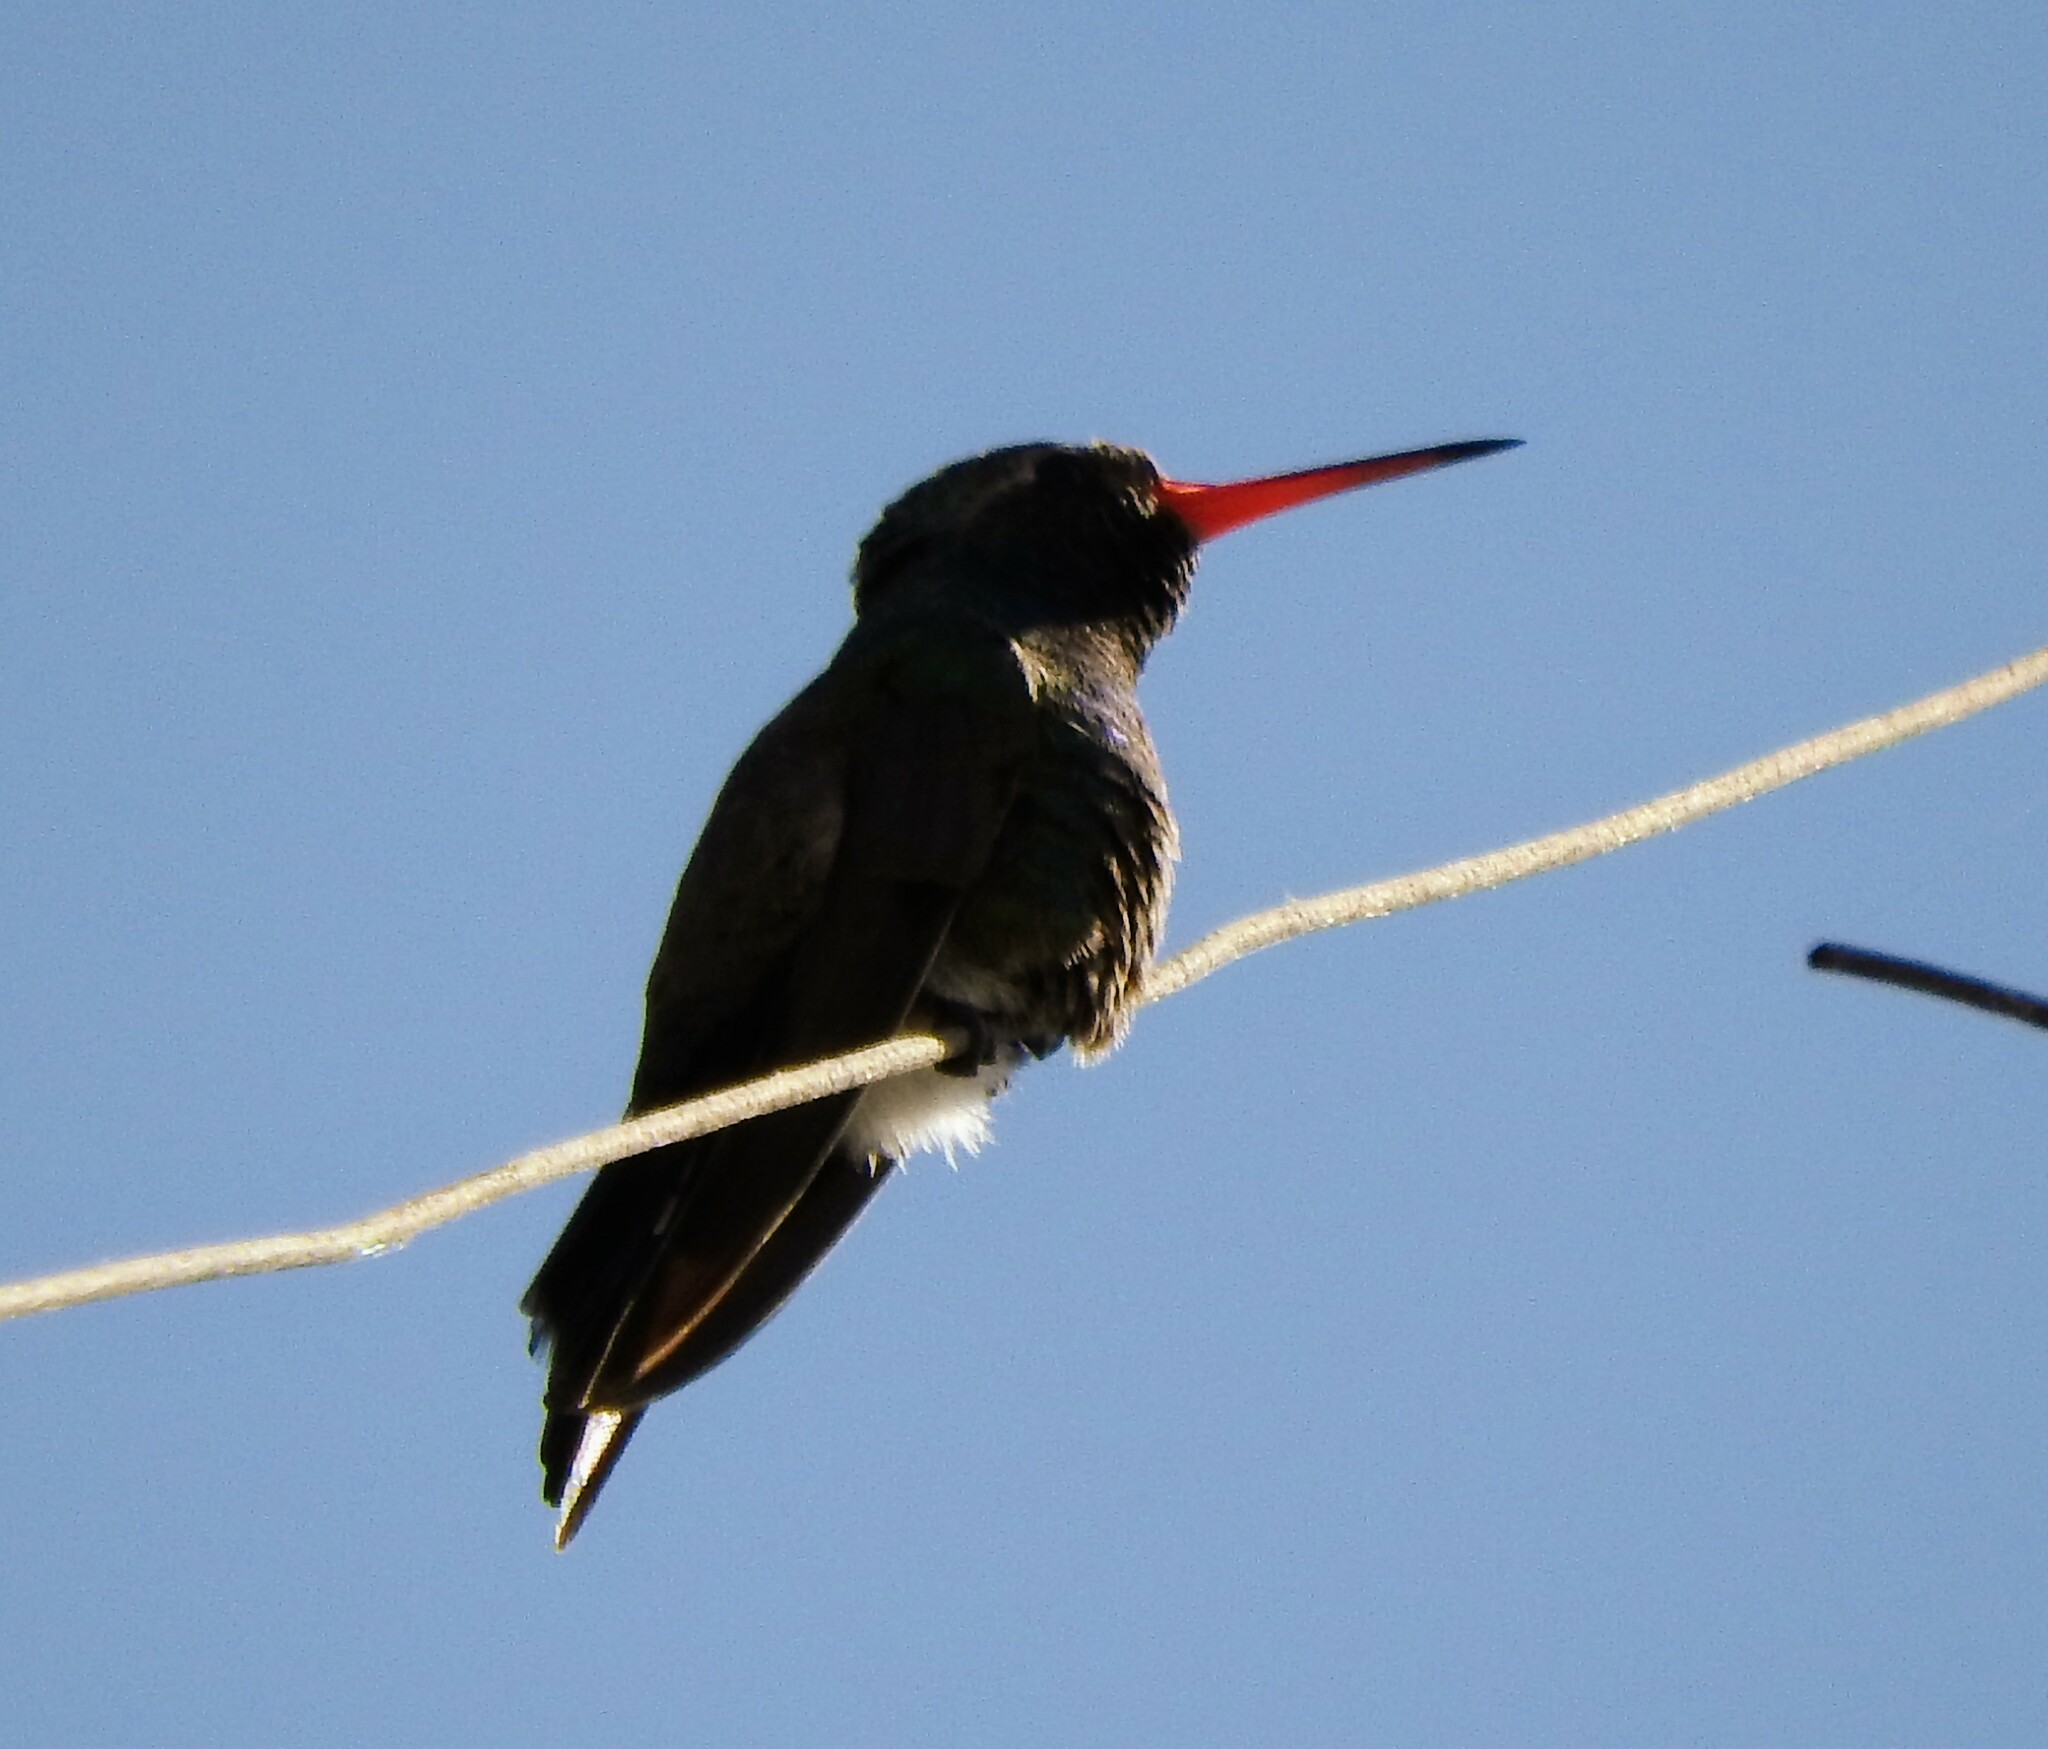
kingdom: Animalia
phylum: Chordata
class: Aves
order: Apodiformes
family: Trochilidae
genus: Cynanthus
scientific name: Cynanthus latirostris
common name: Broad-billed hummingbird
